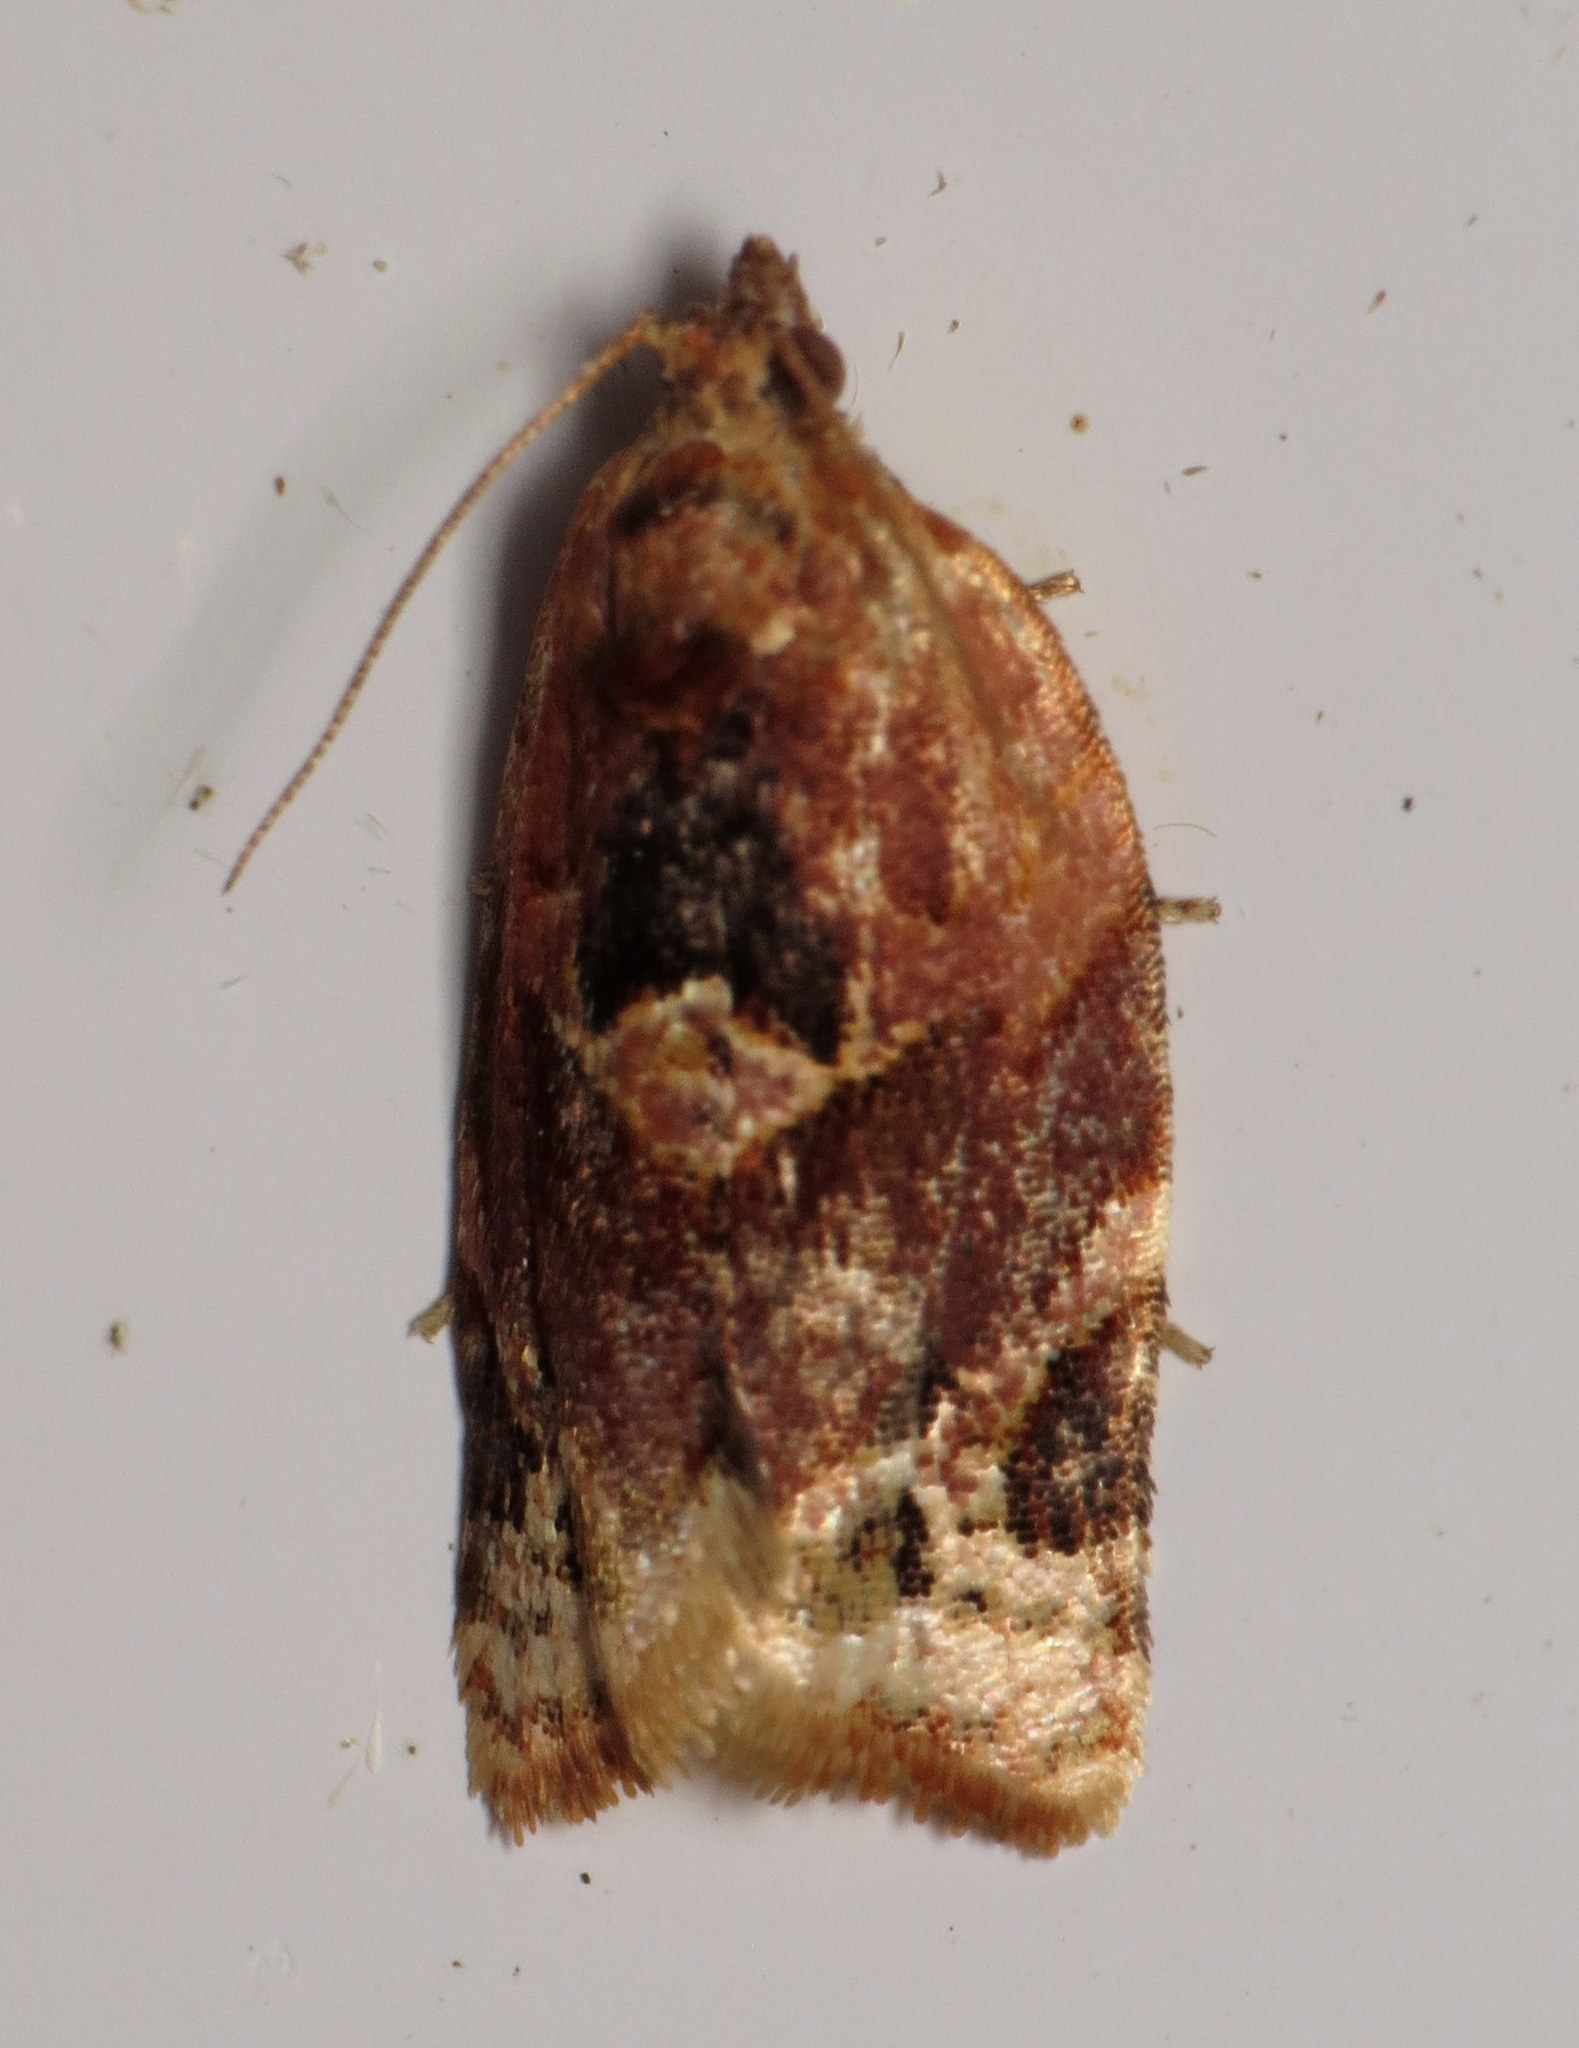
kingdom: Animalia
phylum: Arthropoda
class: Insecta
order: Lepidoptera
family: Tortricidae
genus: Argyrotaenia
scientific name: Argyrotaenia velutinana
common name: Red-banded leafroller moth
